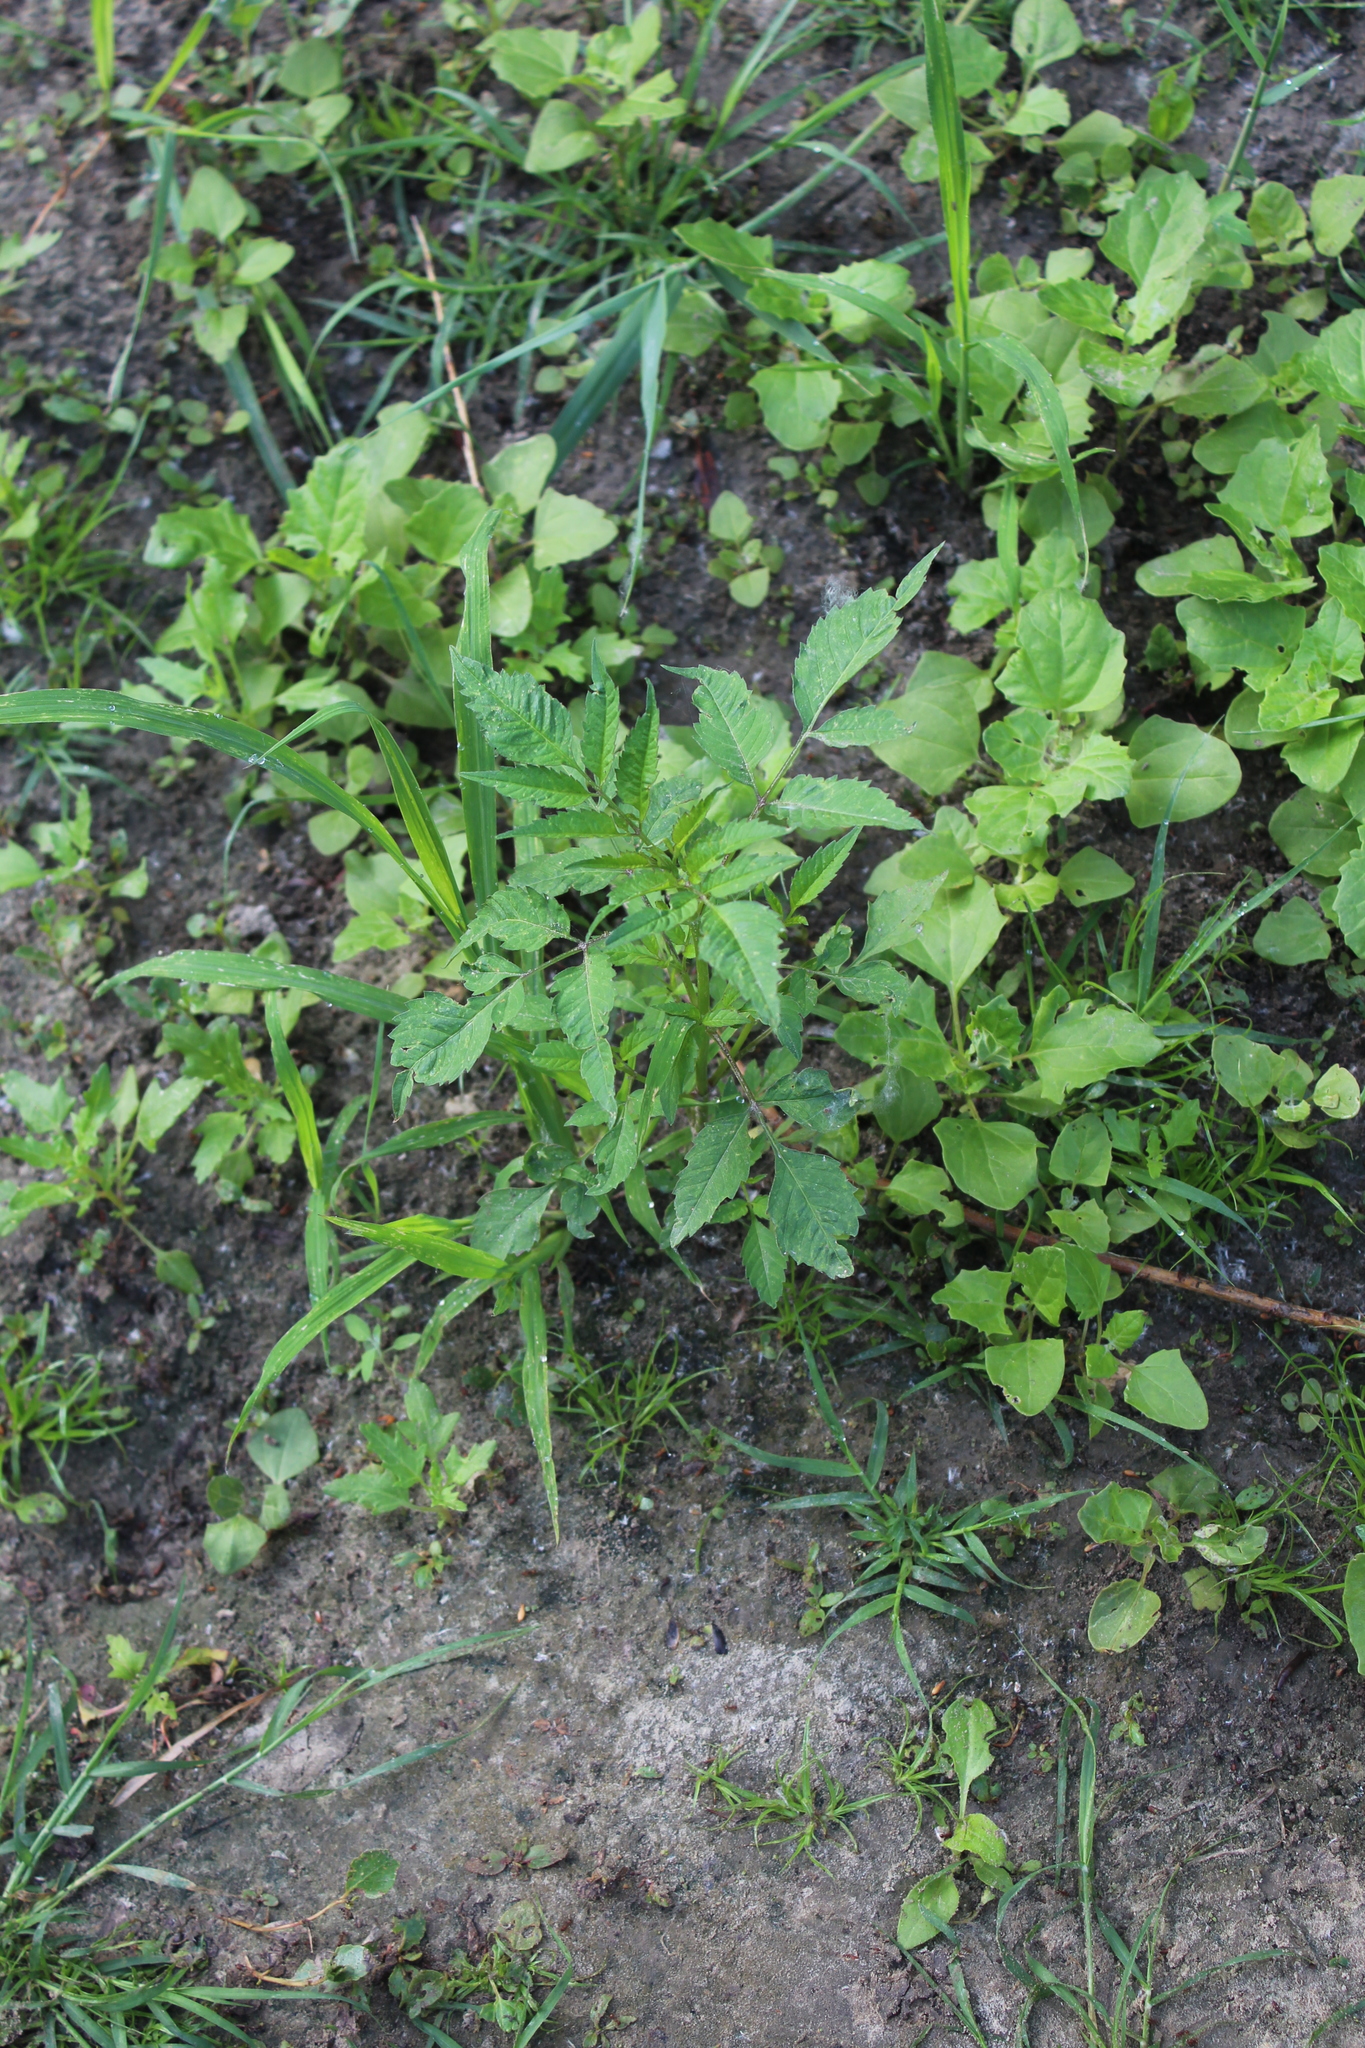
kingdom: Plantae
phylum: Tracheophyta
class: Magnoliopsida
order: Asterales
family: Asteraceae
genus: Bidens
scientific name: Bidens frondosa
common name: Beggarticks
